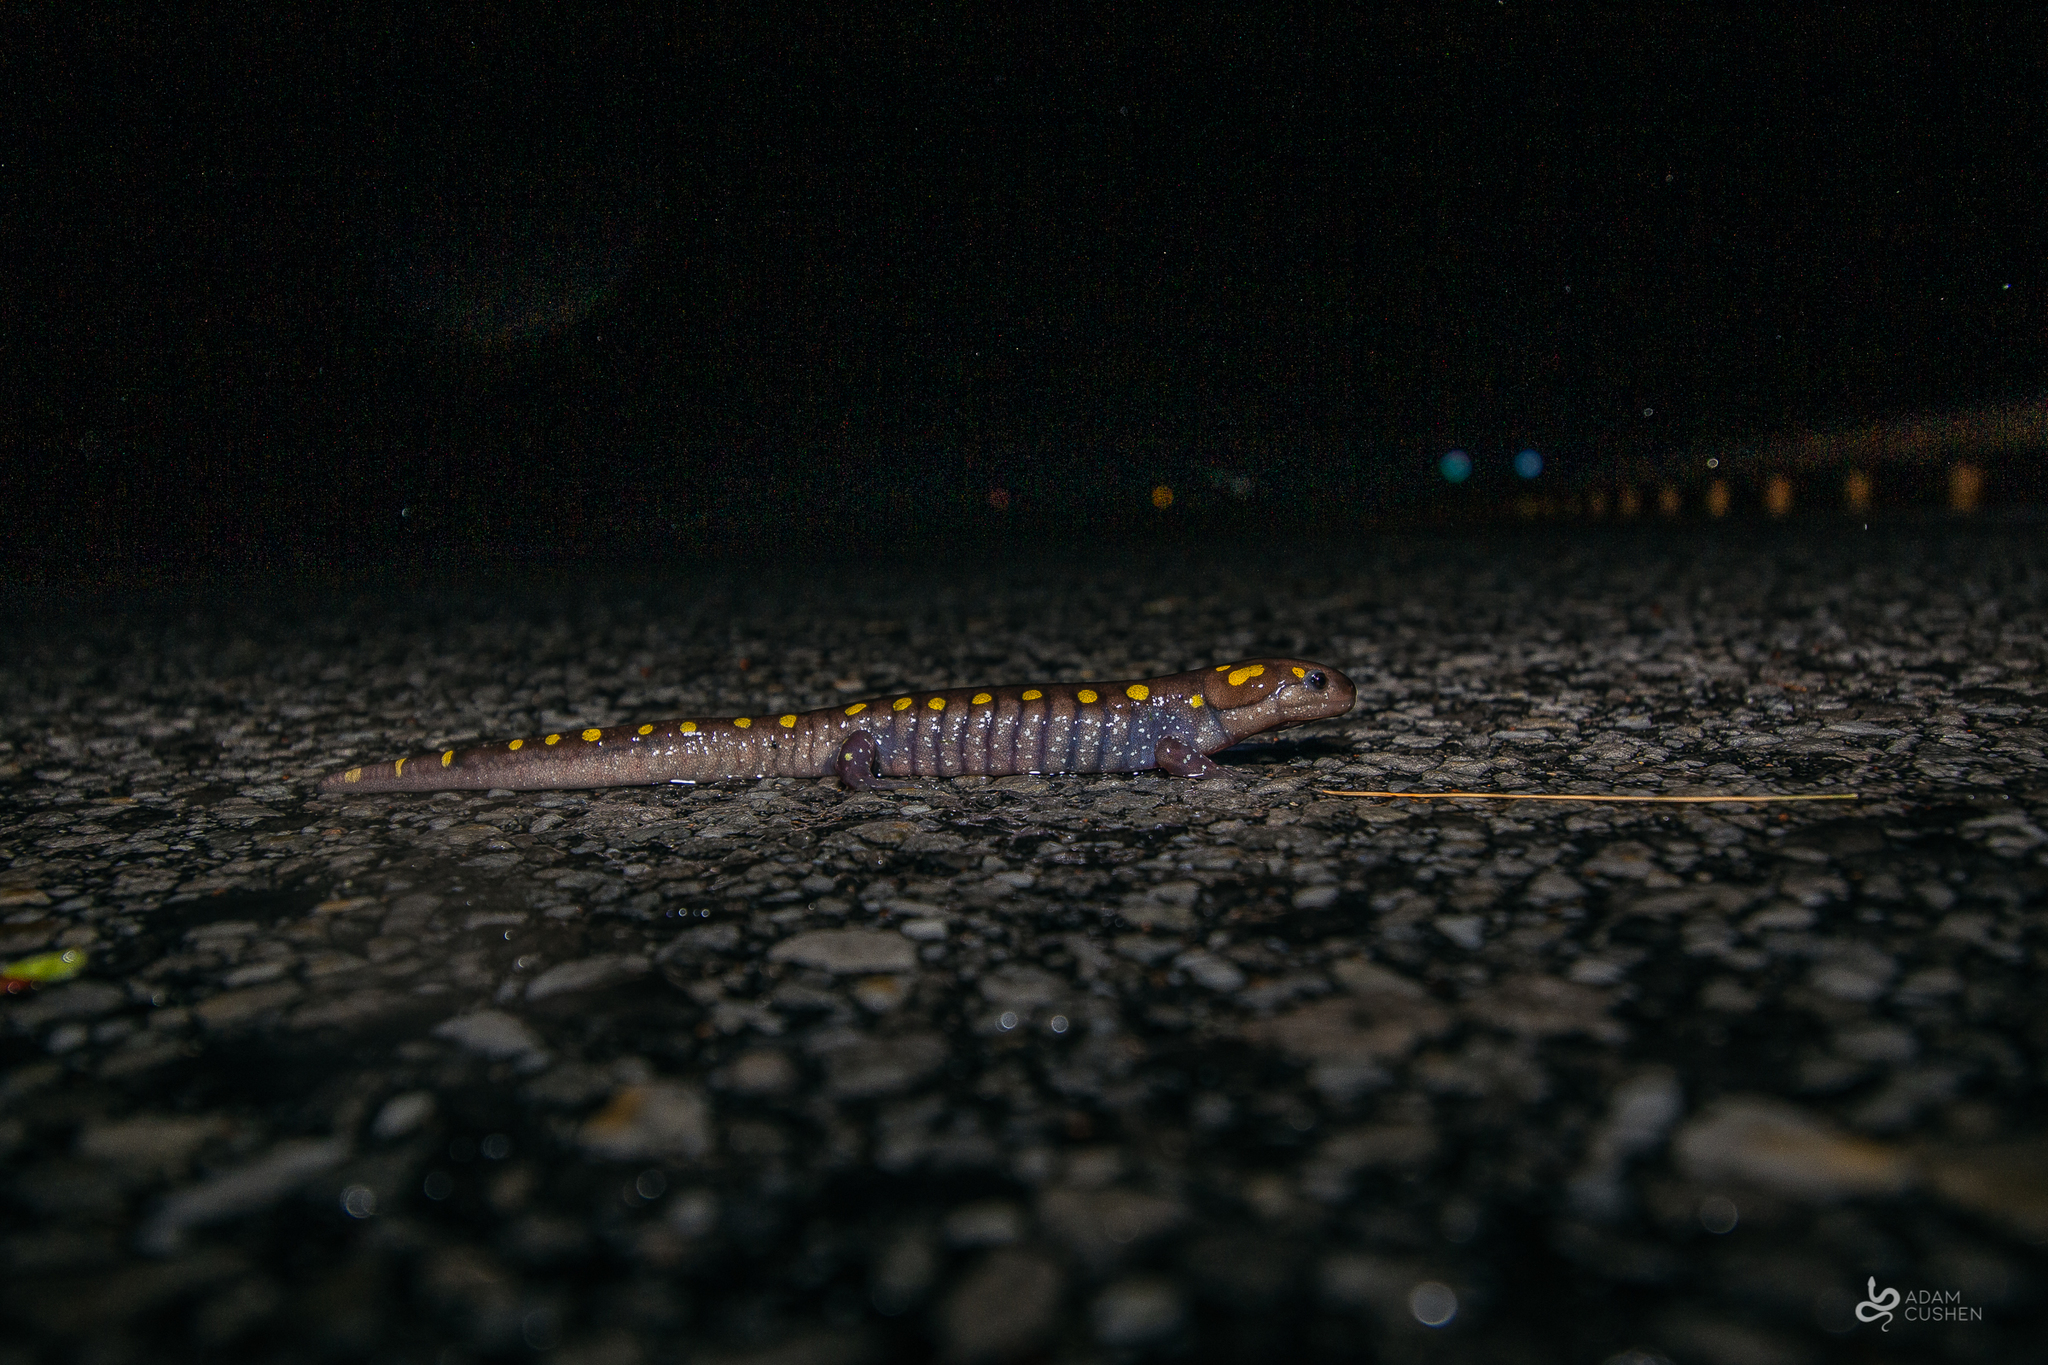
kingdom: Animalia
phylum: Chordata
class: Amphibia
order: Caudata
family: Ambystomatidae
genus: Ambystoma
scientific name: Ambystoma maculatum
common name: Spotted salamander
